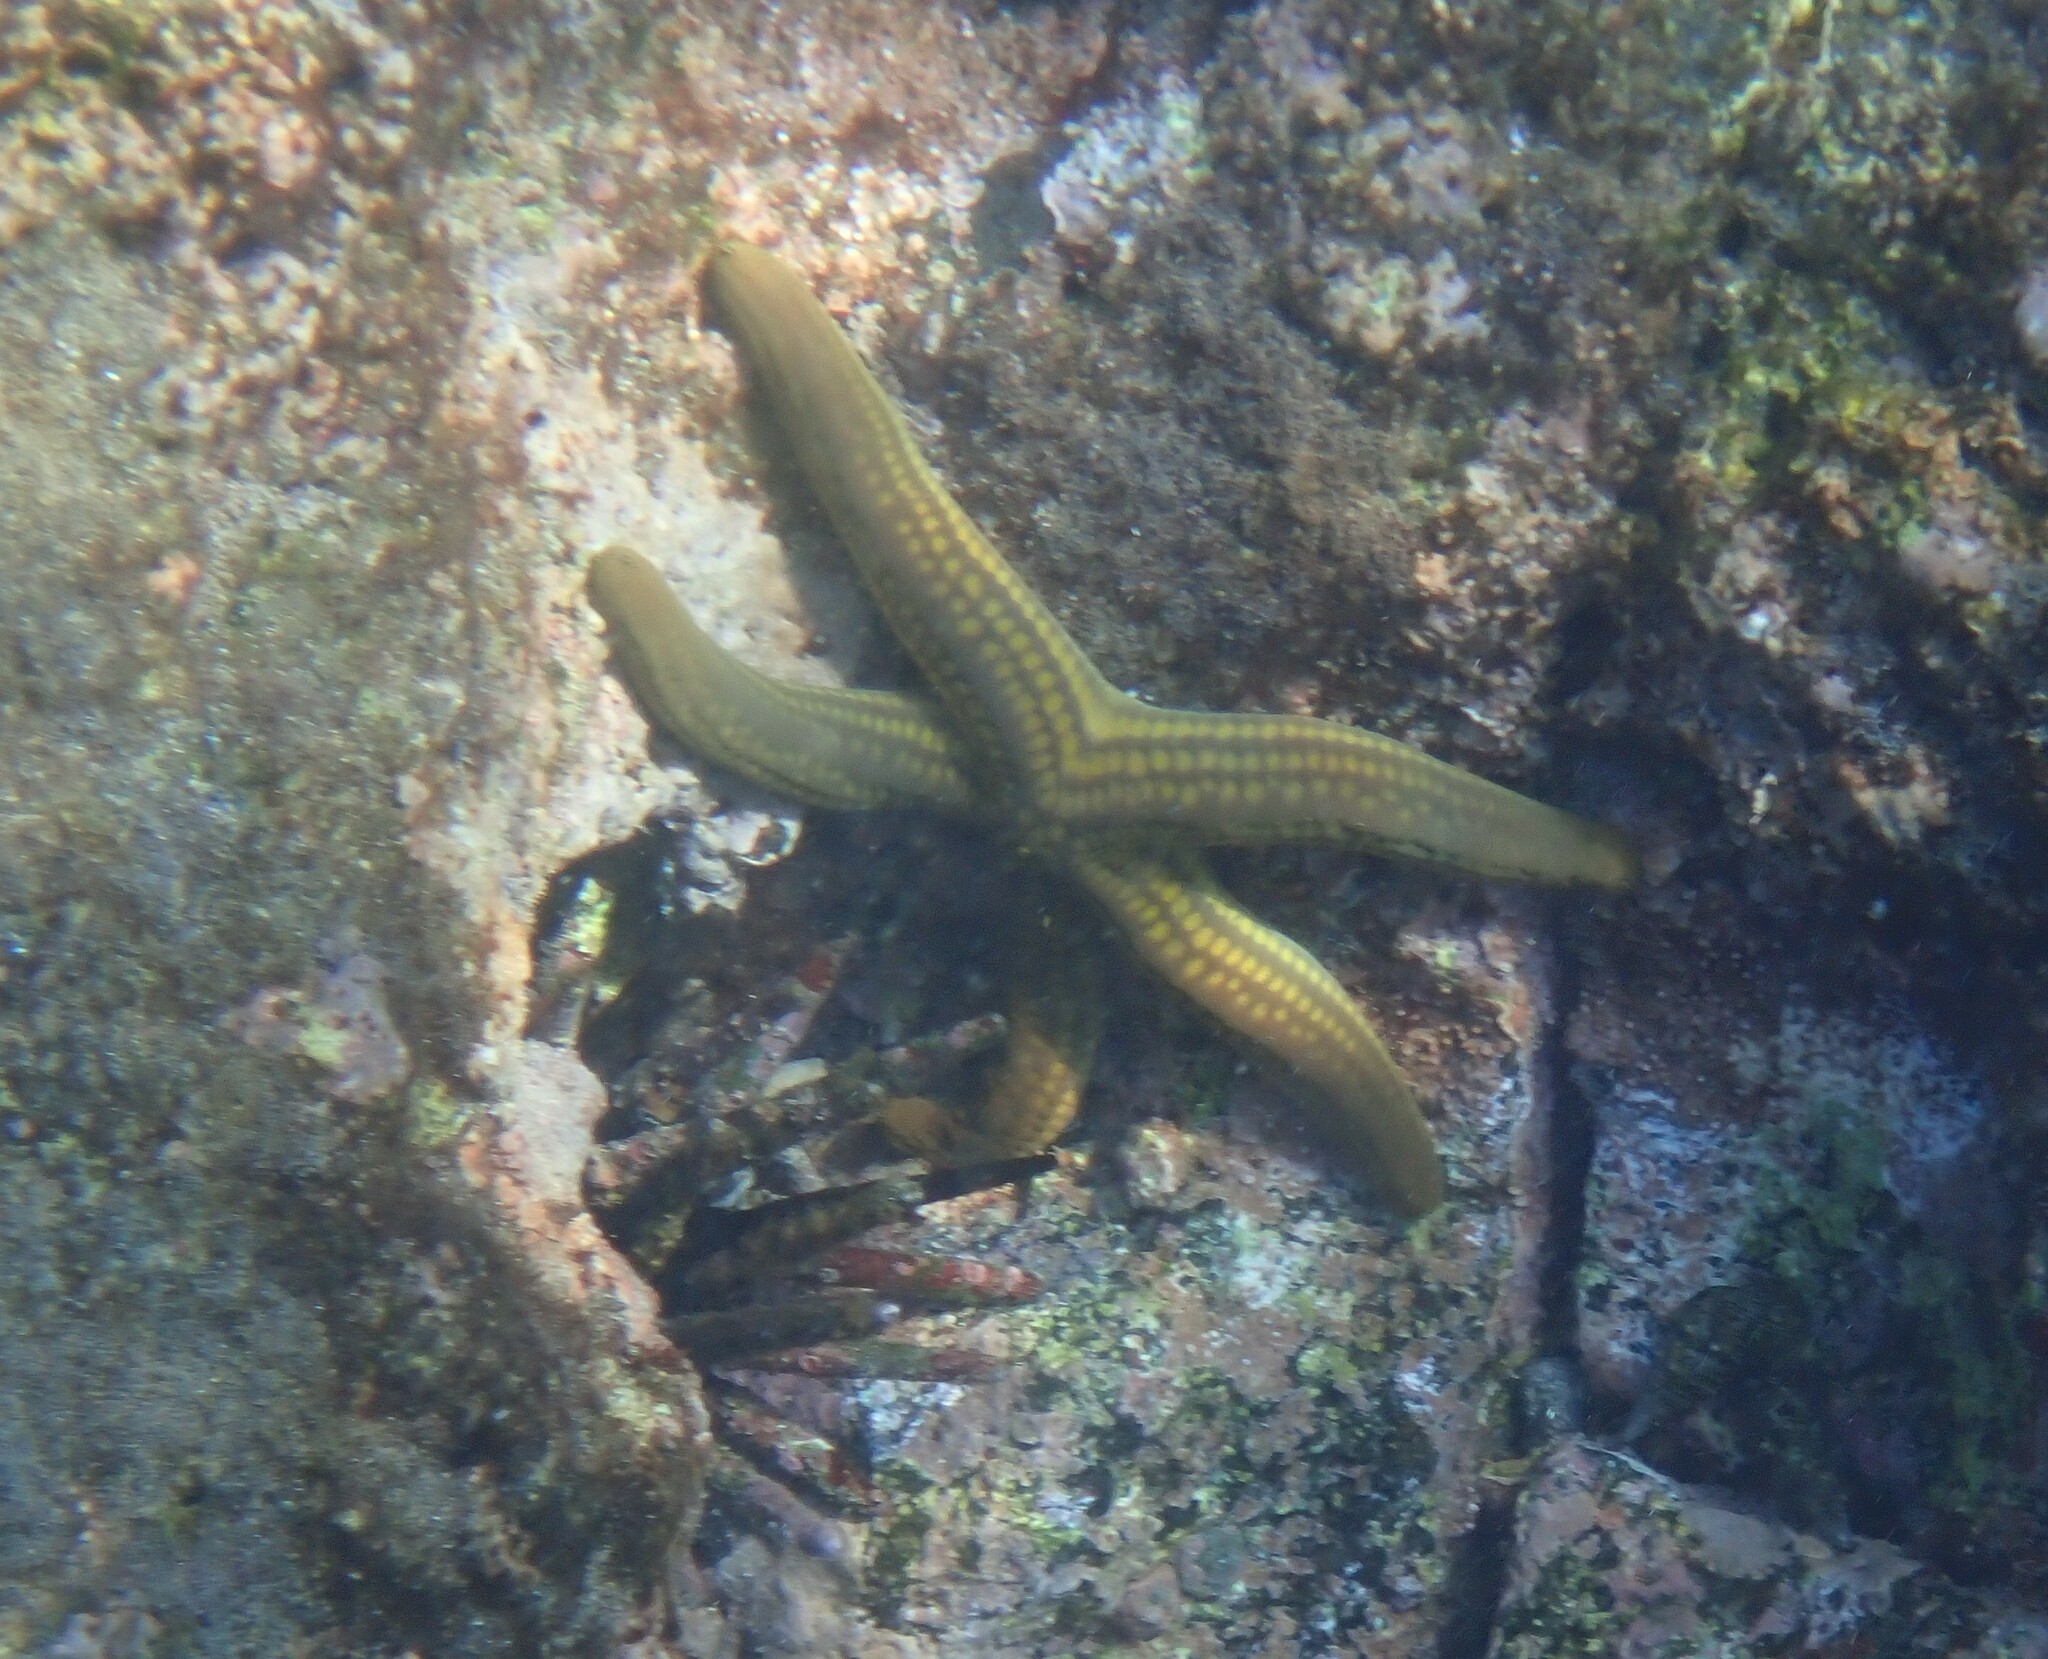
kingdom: Animalia
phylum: Echinodermata
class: Asteroidea
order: Valvatida
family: Ophidiasteridae
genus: Pharia
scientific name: Pharia pyramidata
